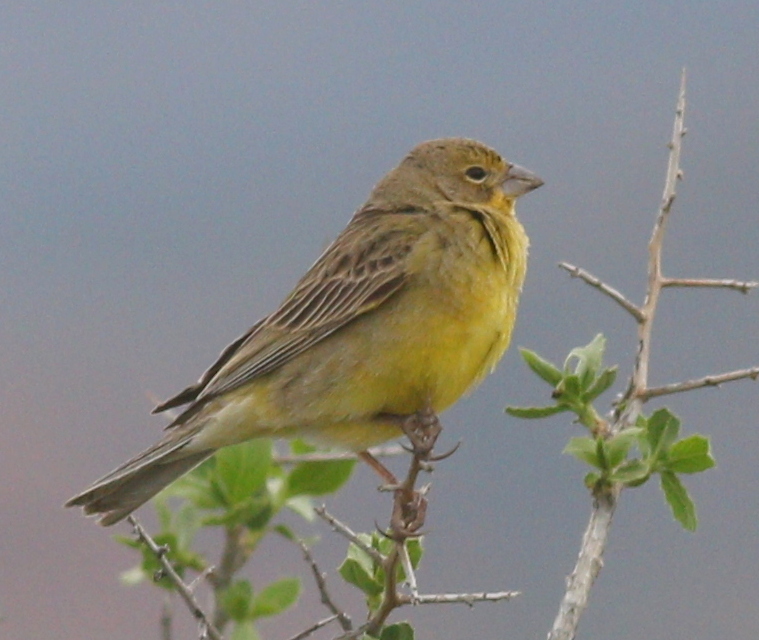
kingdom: Animalia
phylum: Chordata
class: Aves
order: Passeriformes
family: Thraupidae
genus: Sicalis
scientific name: Sicalis luteola
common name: Grassland yellow-finch
